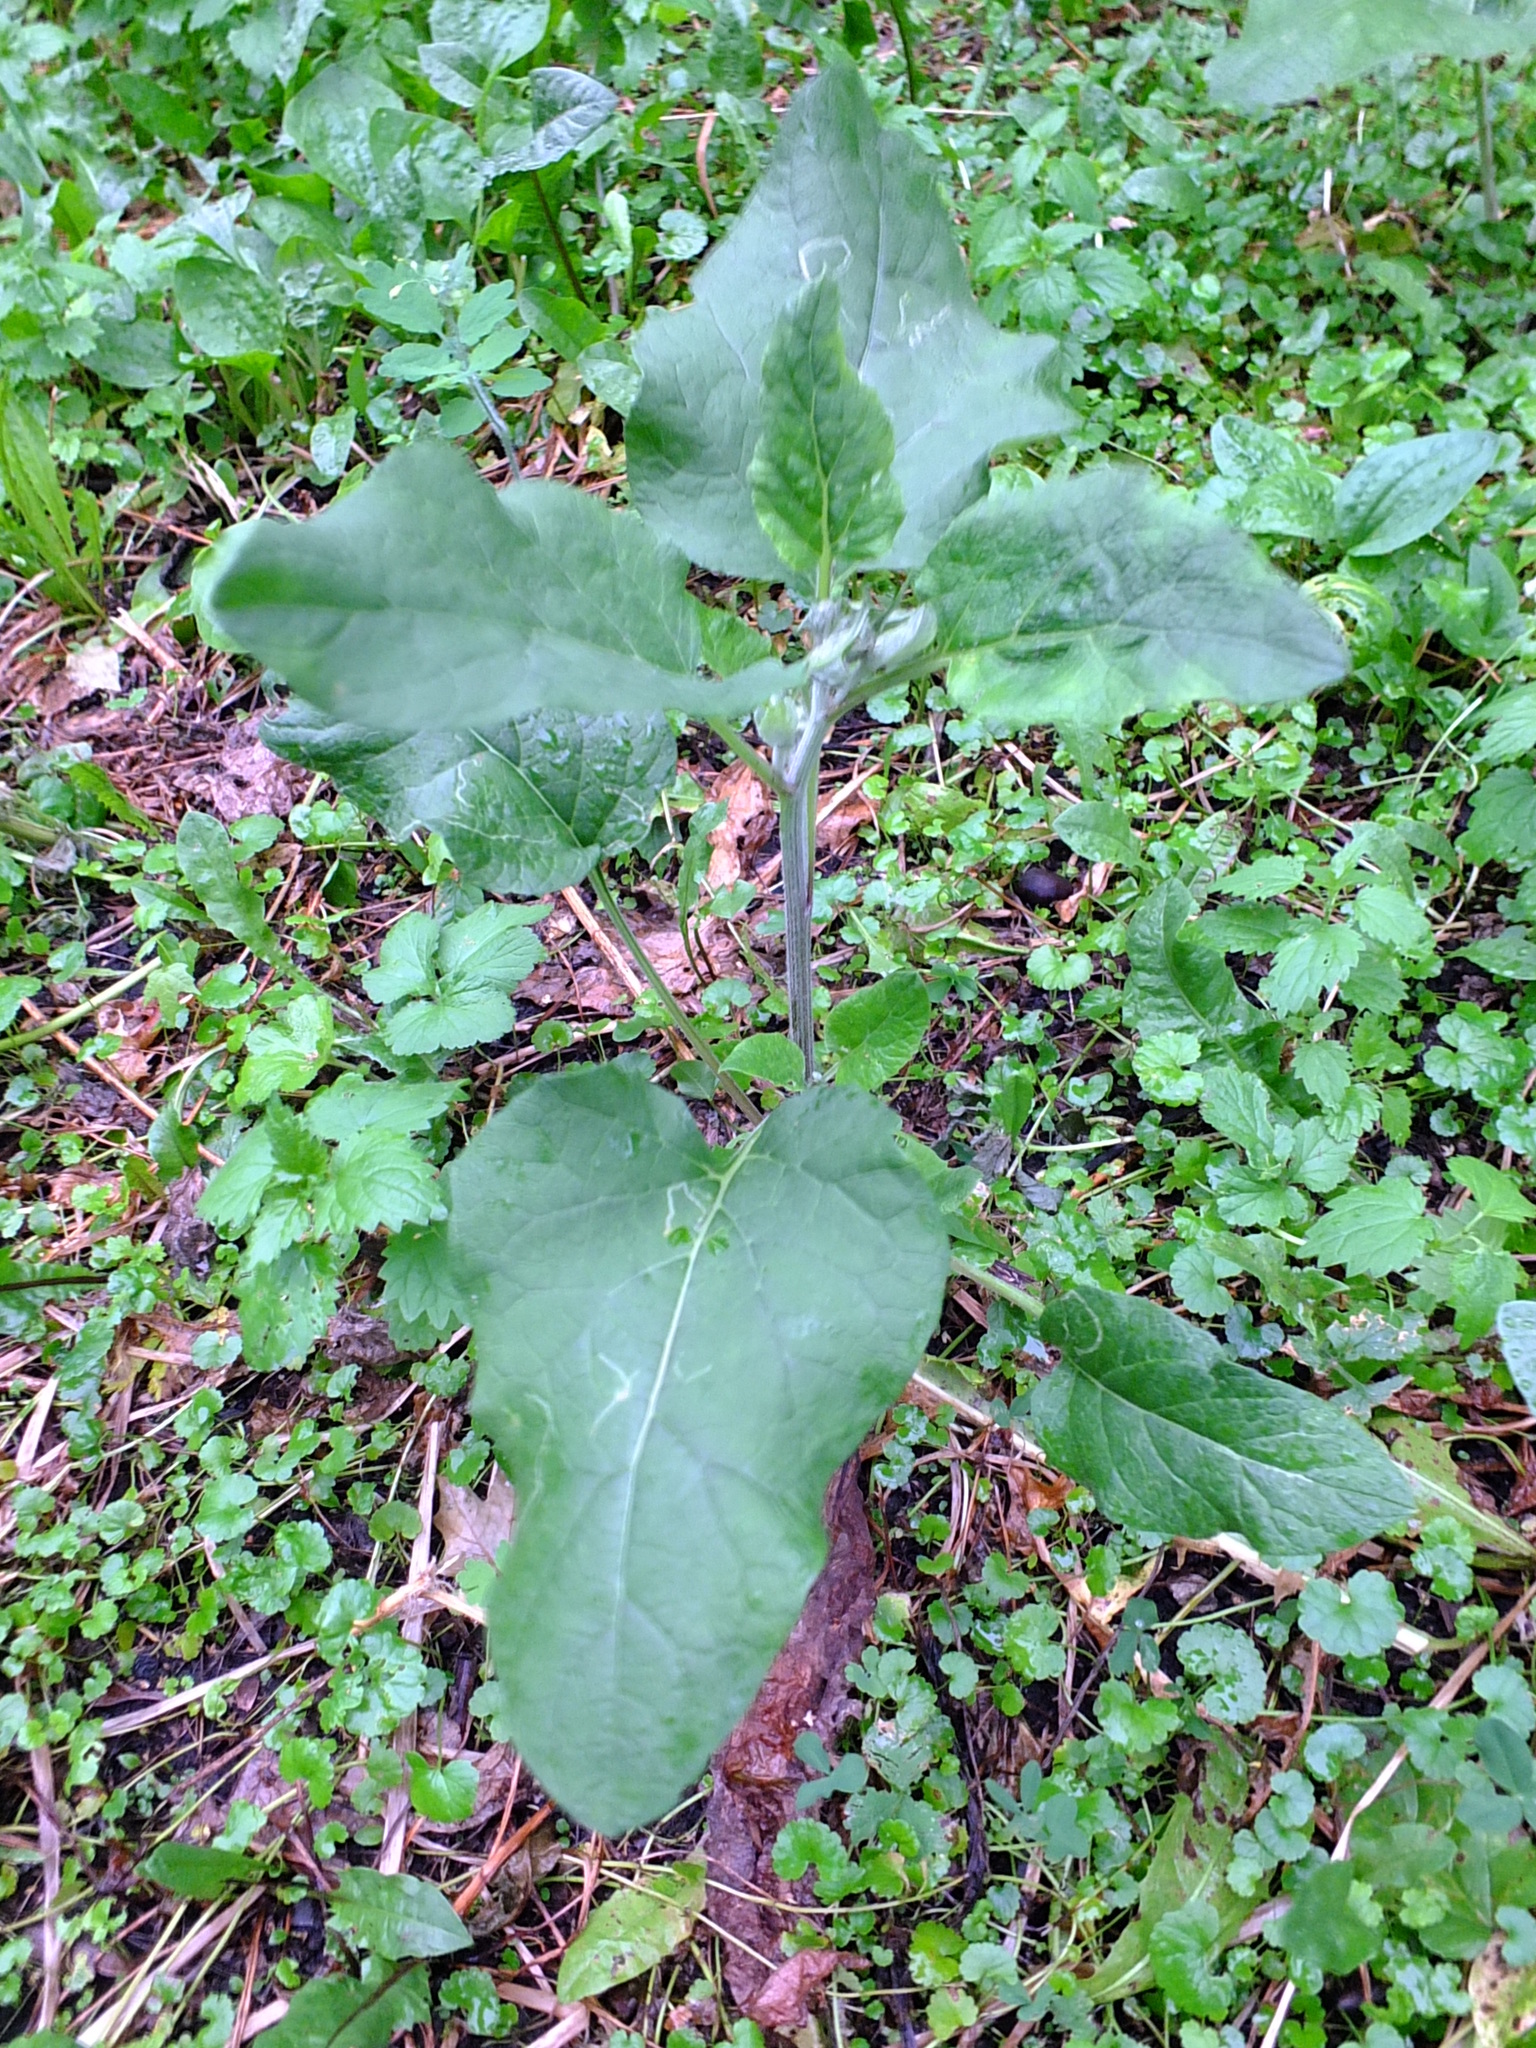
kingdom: Plantae
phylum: Tracheophyta
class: Magnoliopsida
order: Asterales
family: Asteraceae
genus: Arctium
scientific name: Arctium tomentosum
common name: Woolly burdock
